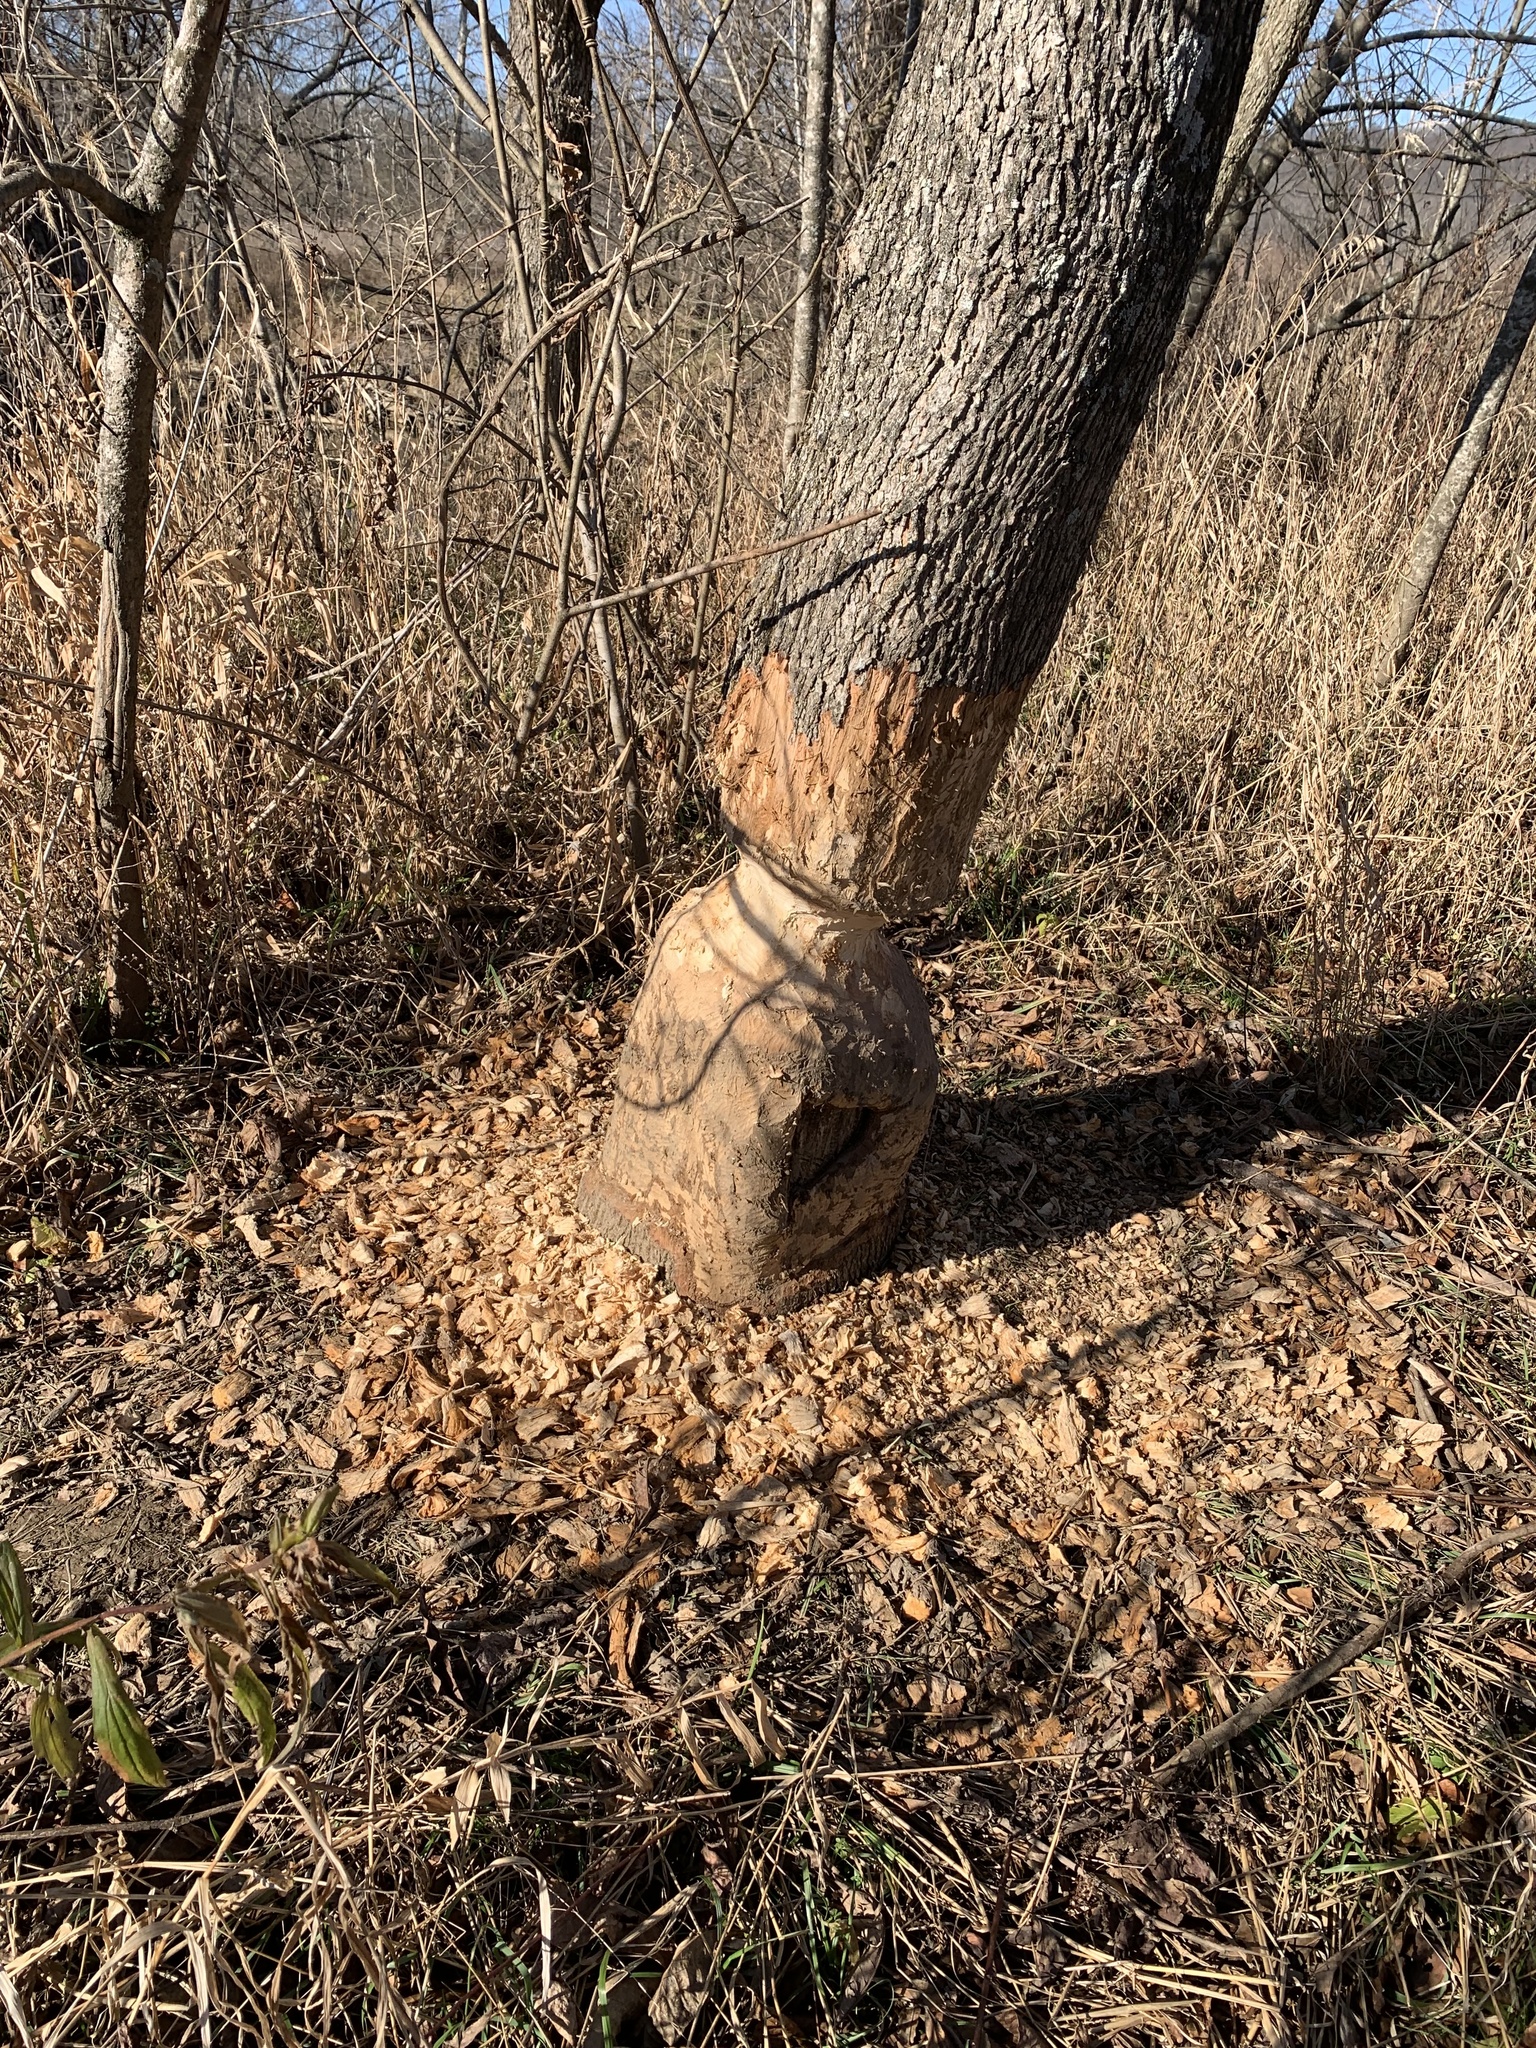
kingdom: Animalia
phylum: Chordata
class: Mammalia
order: Rodentia
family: Castoridae
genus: Castor
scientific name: Castor canadensis
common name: American beaver
